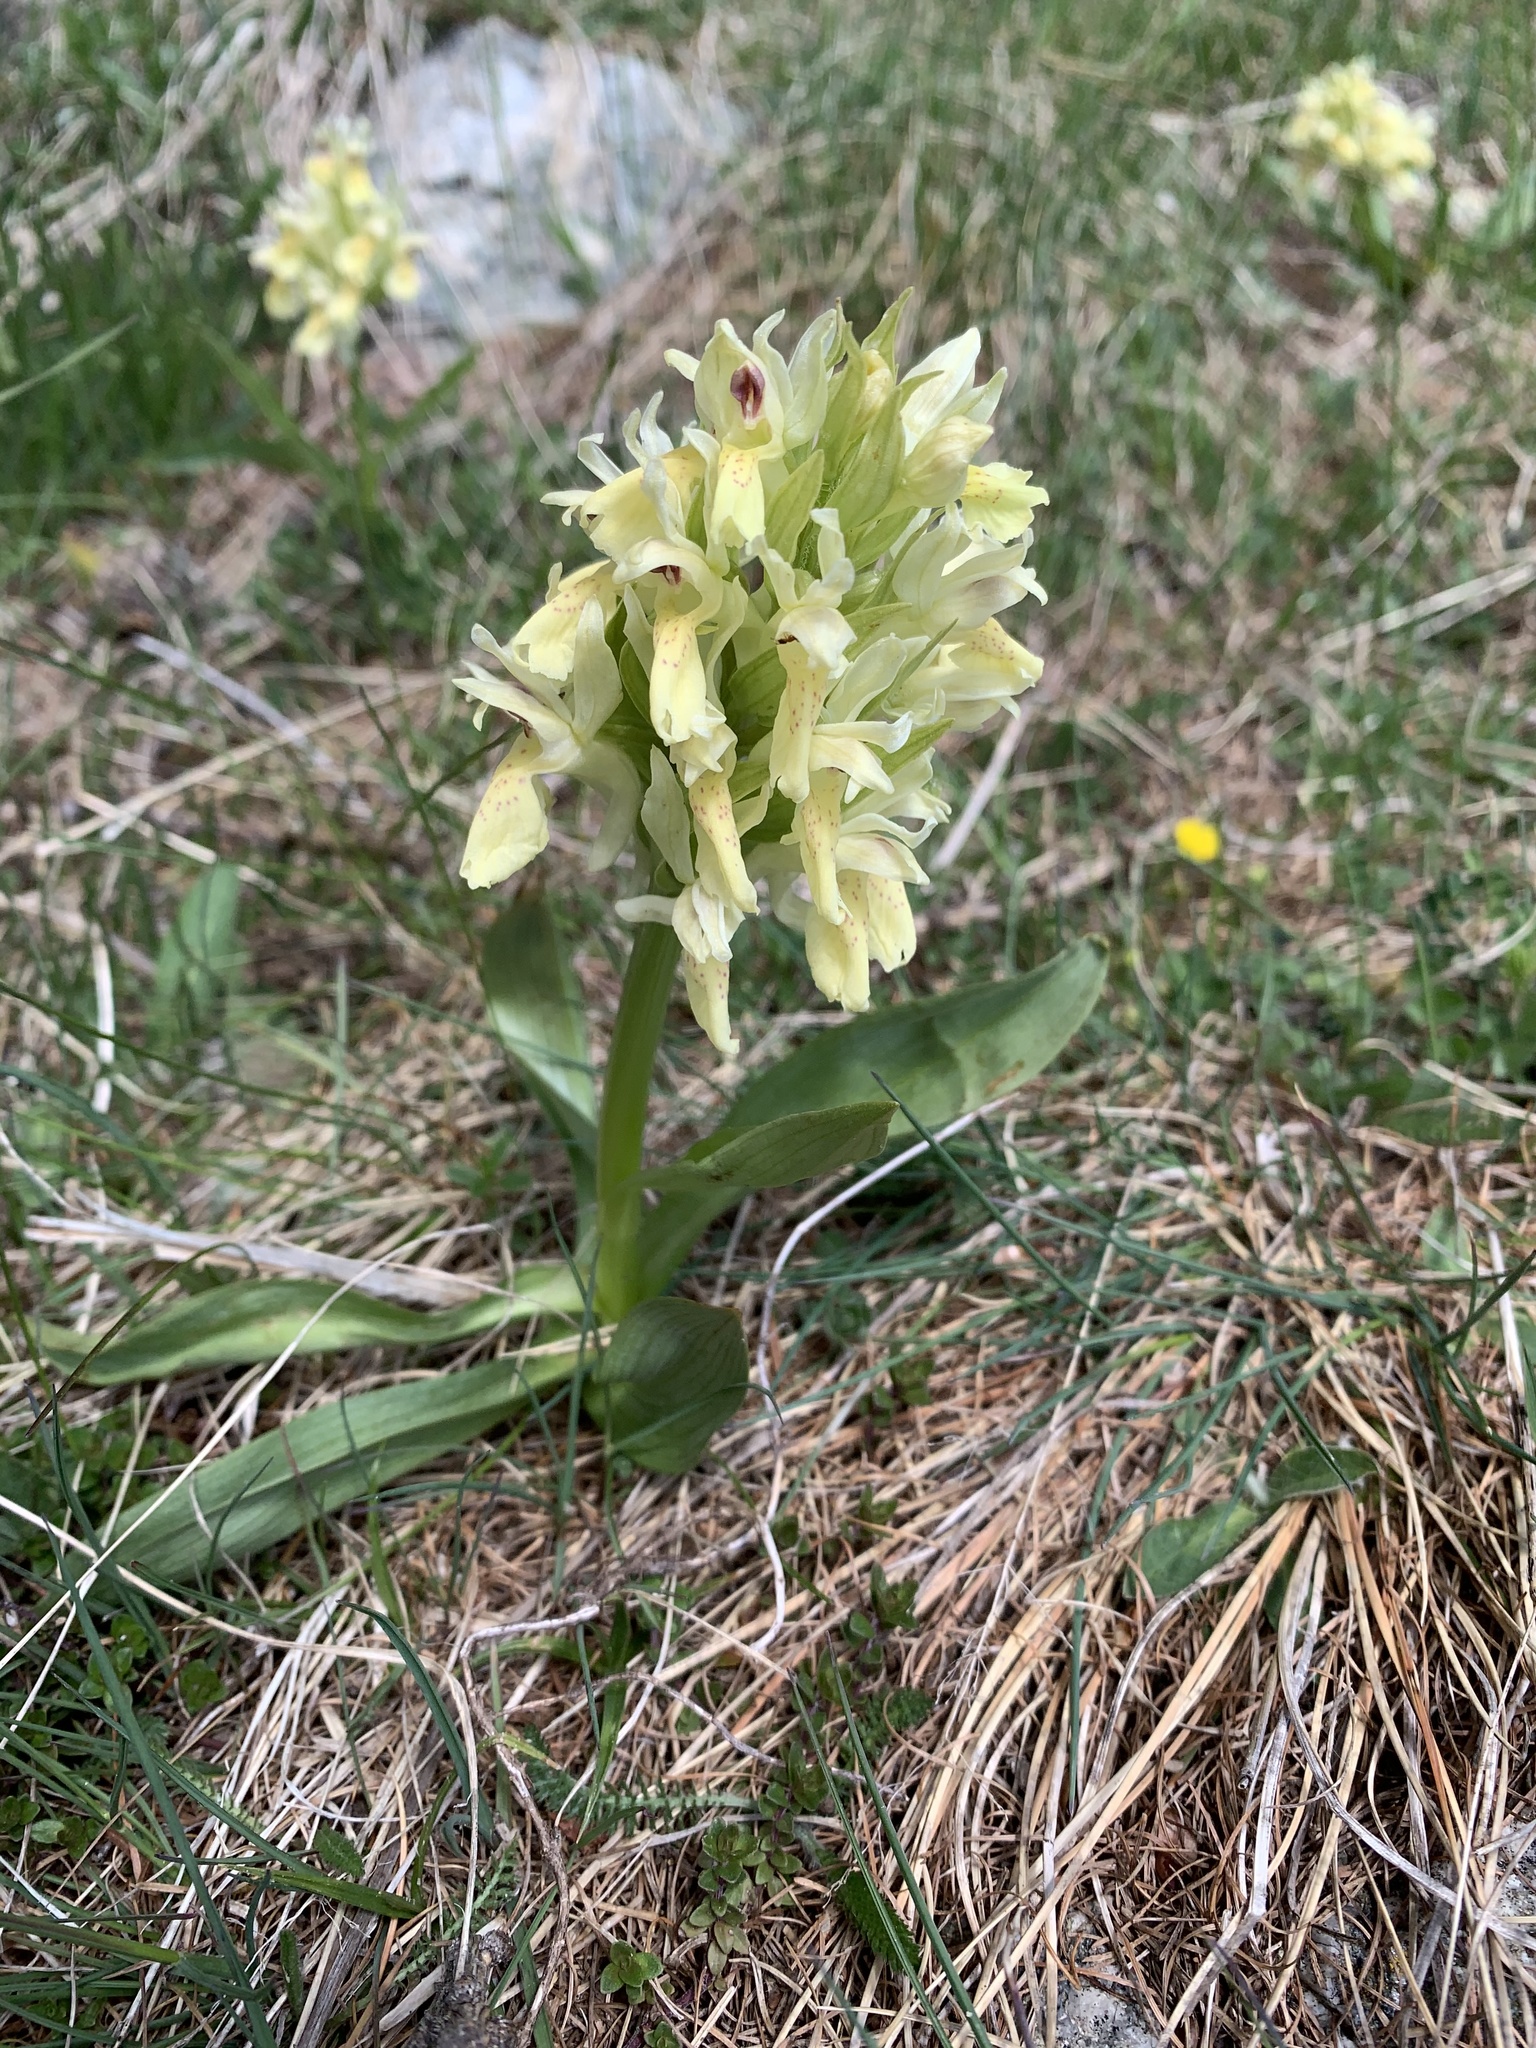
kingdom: Plantae
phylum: Tracheophyta
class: Liliopsida
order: Asparagales
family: Orchidaceae
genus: Dactylorhiza
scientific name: Dactylorhiza sambucina
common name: Elder-flowered orchid
